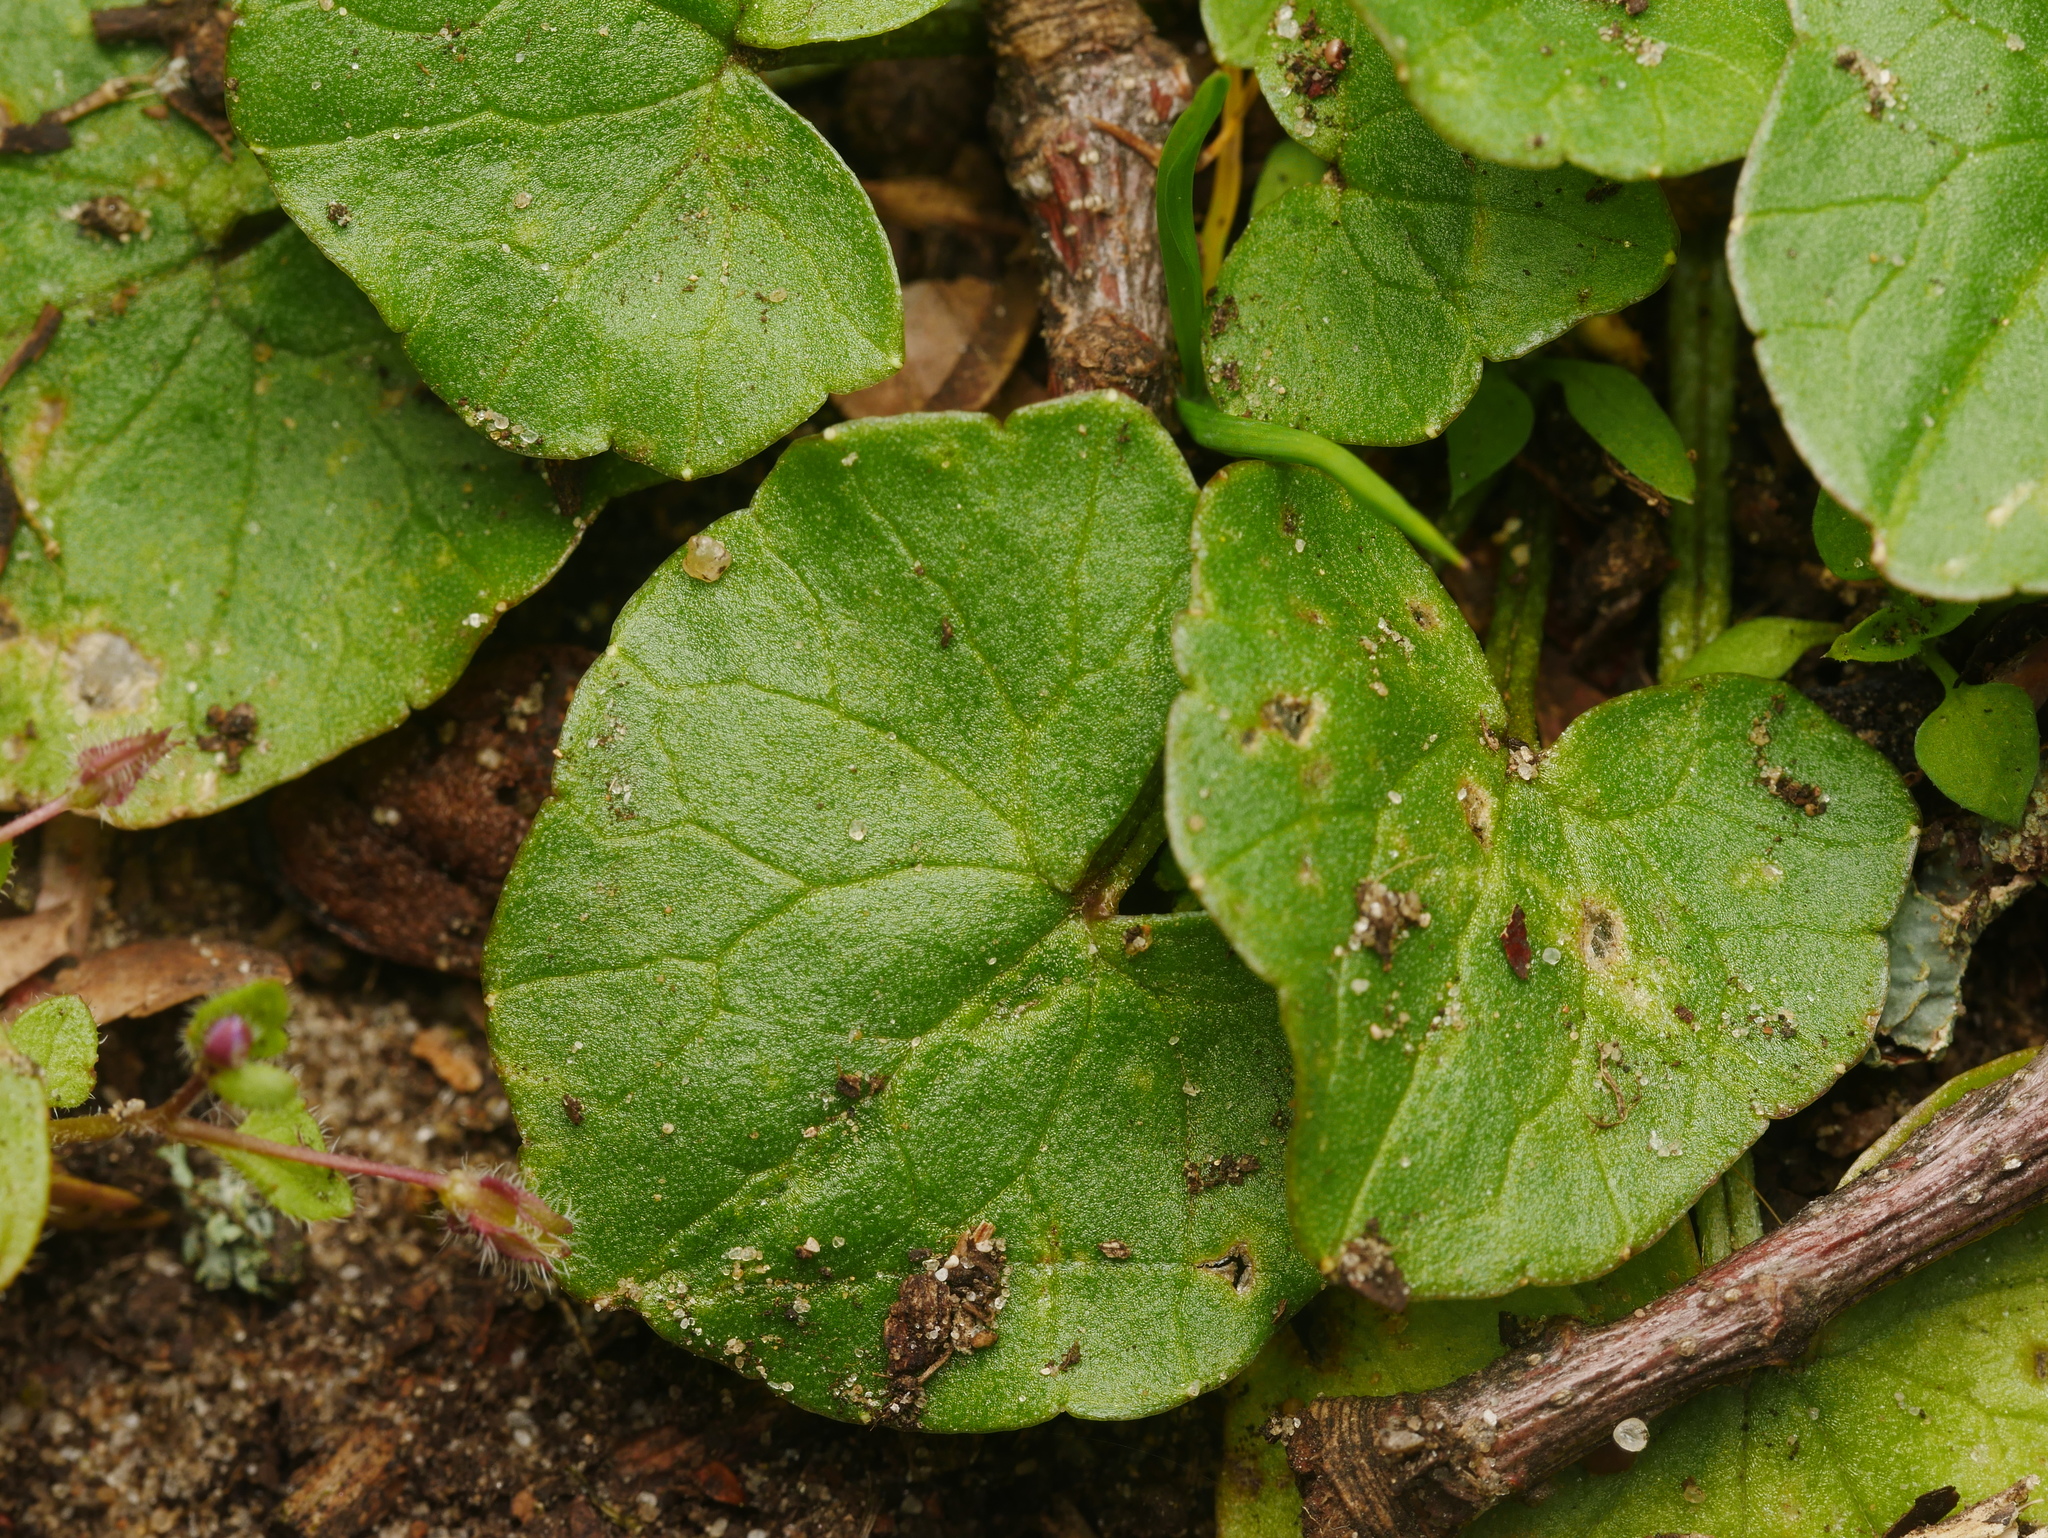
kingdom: Plantae
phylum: Tracheophyta
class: Magnoliopsida
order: Ranunculales
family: Ranunculaceae
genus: Ficaria
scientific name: Ficaria verna
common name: Lesser celandine
